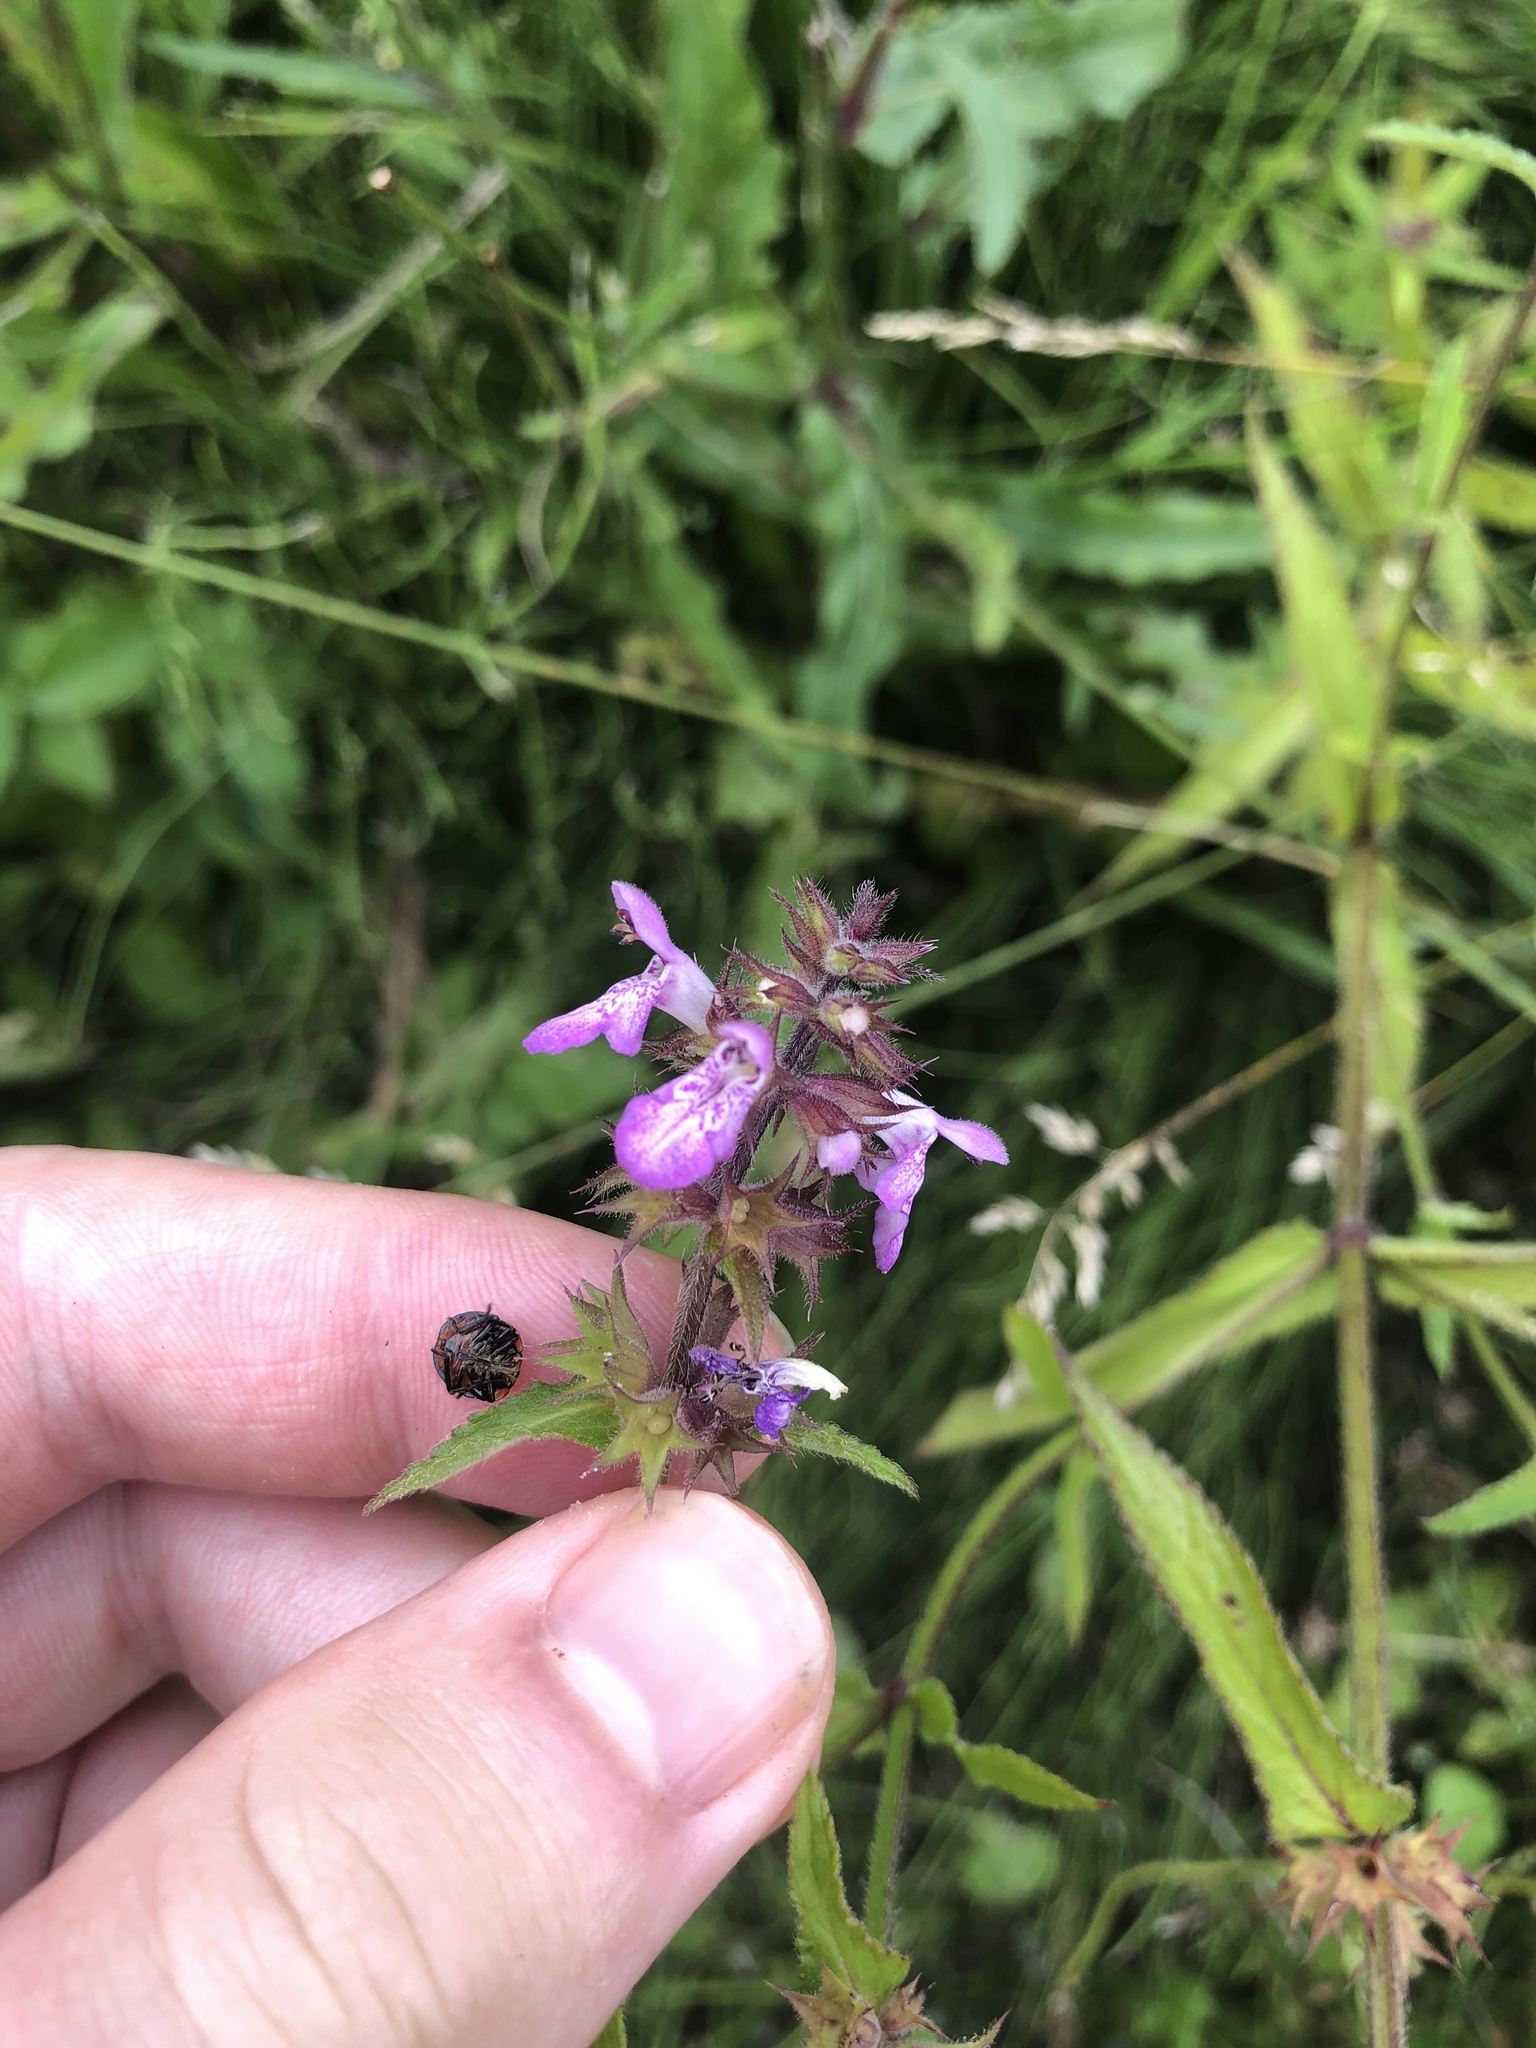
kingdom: Plantae
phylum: Tracheophyta
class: Magnoliopsida
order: Lamiales
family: Lamiaceae
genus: Stachys
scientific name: Stachys palustris
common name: Marsh woundwort
